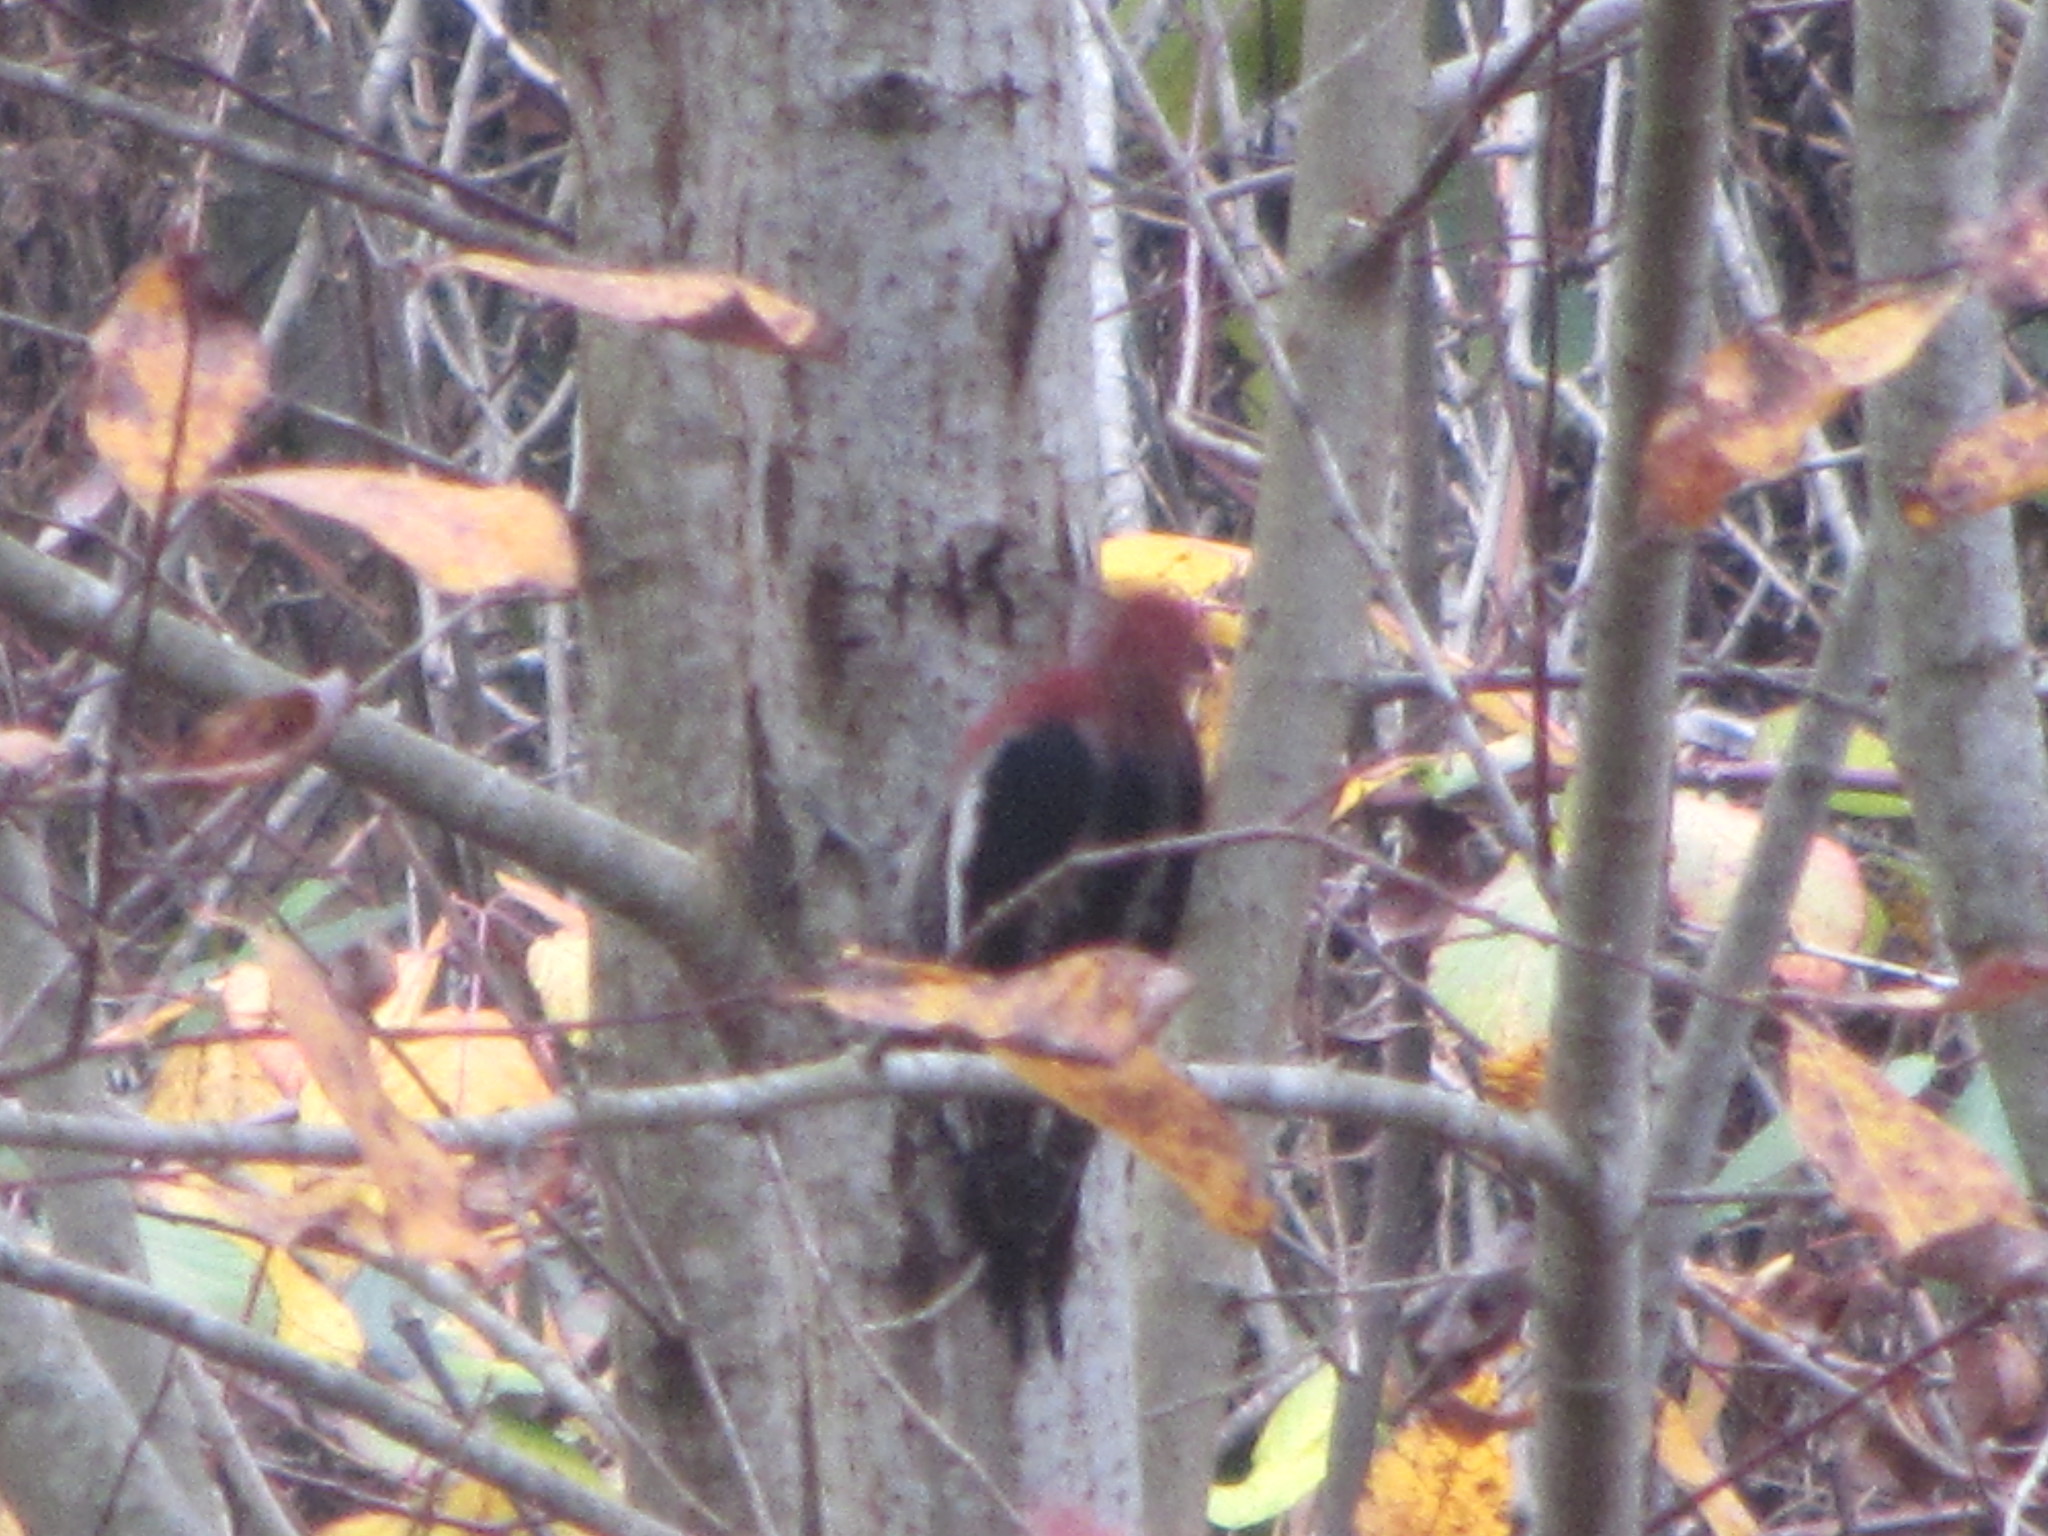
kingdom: Animalia
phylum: Chordata
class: Aves
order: Piciformes
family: Picidae
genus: Sphyrapicus
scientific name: Sphyrapicus ruber
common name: Red-breasted sapsucker
